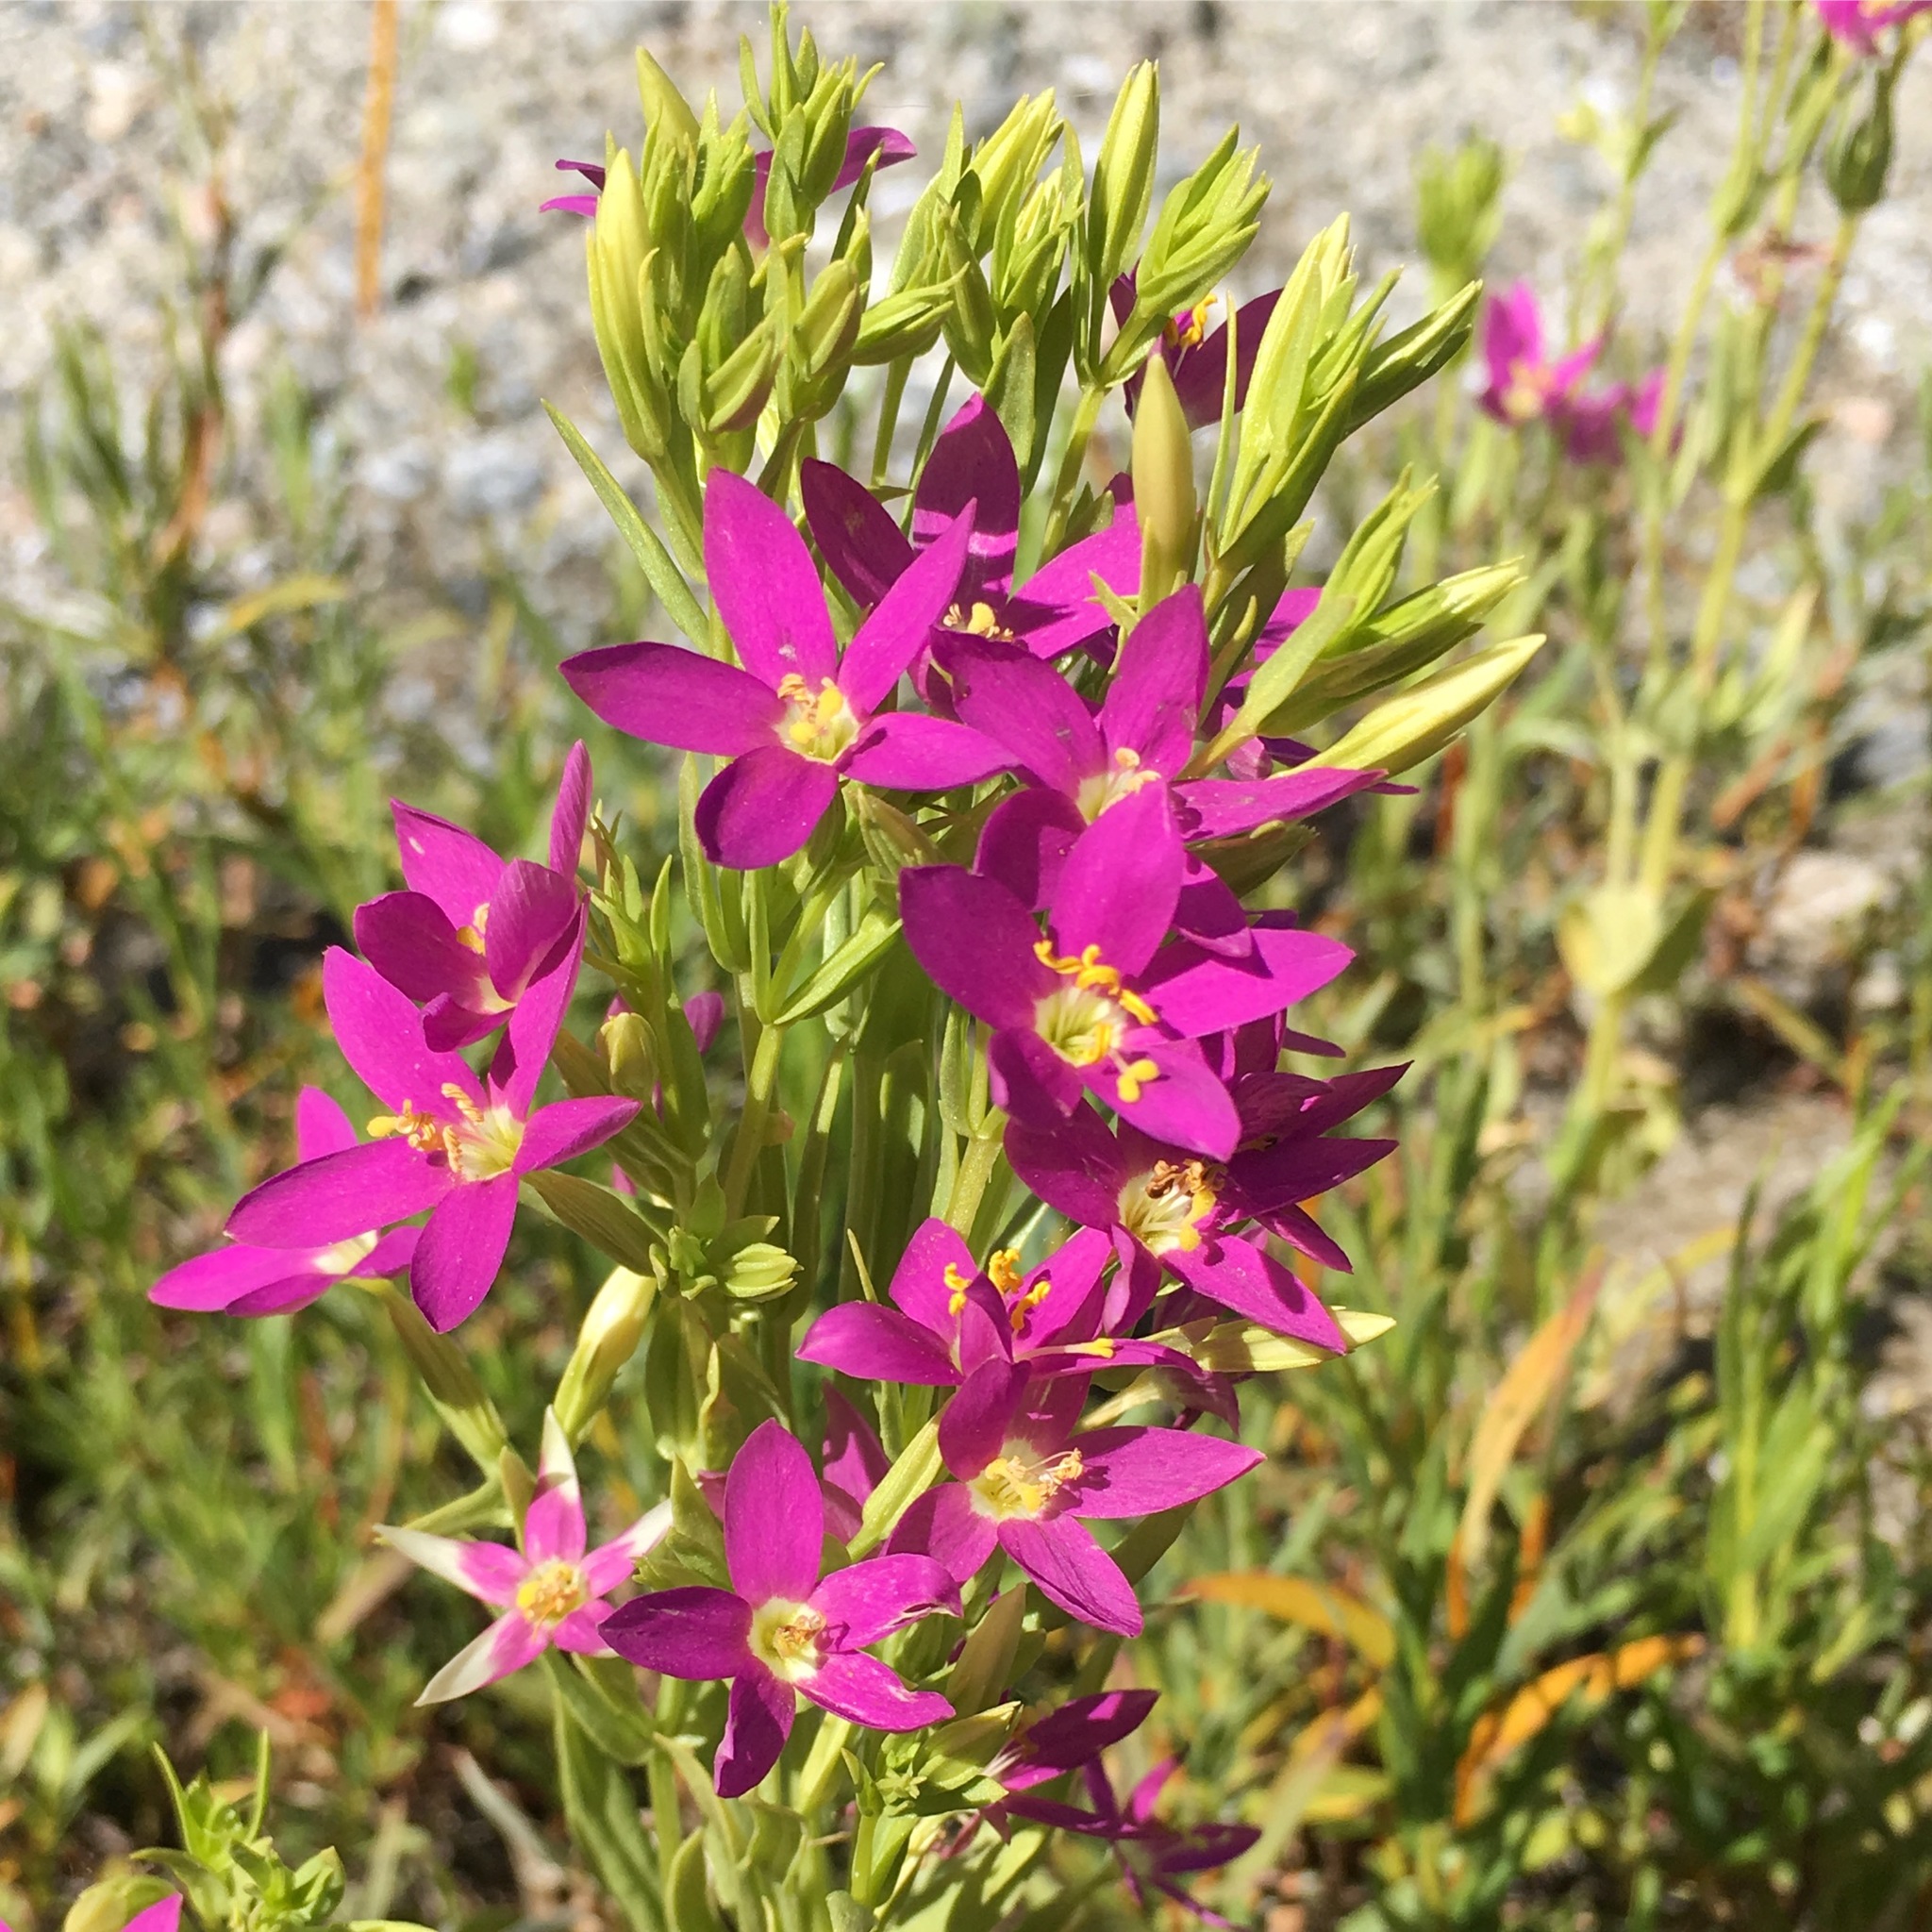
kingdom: Plantae
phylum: Tracheophyta
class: Magnoliopsida
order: Gentianales
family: Gentianaceae
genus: Zeltnera
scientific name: Zeltnera venusta
